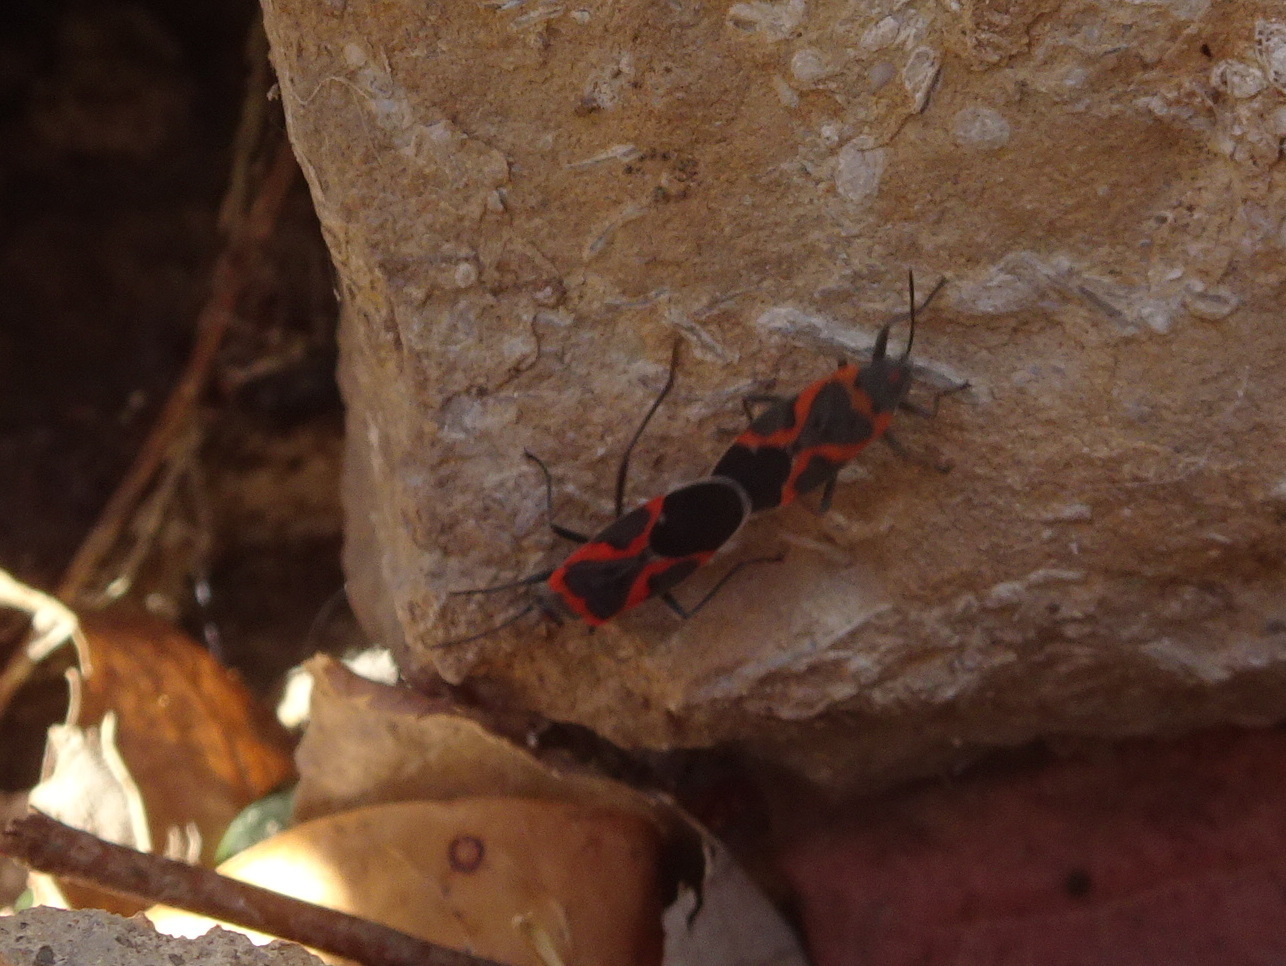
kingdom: Animalia
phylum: Arthropoda
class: Insecta
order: Hemiptera
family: Lygaeidae
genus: Lygaeus
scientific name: Lygaeus kalmii
